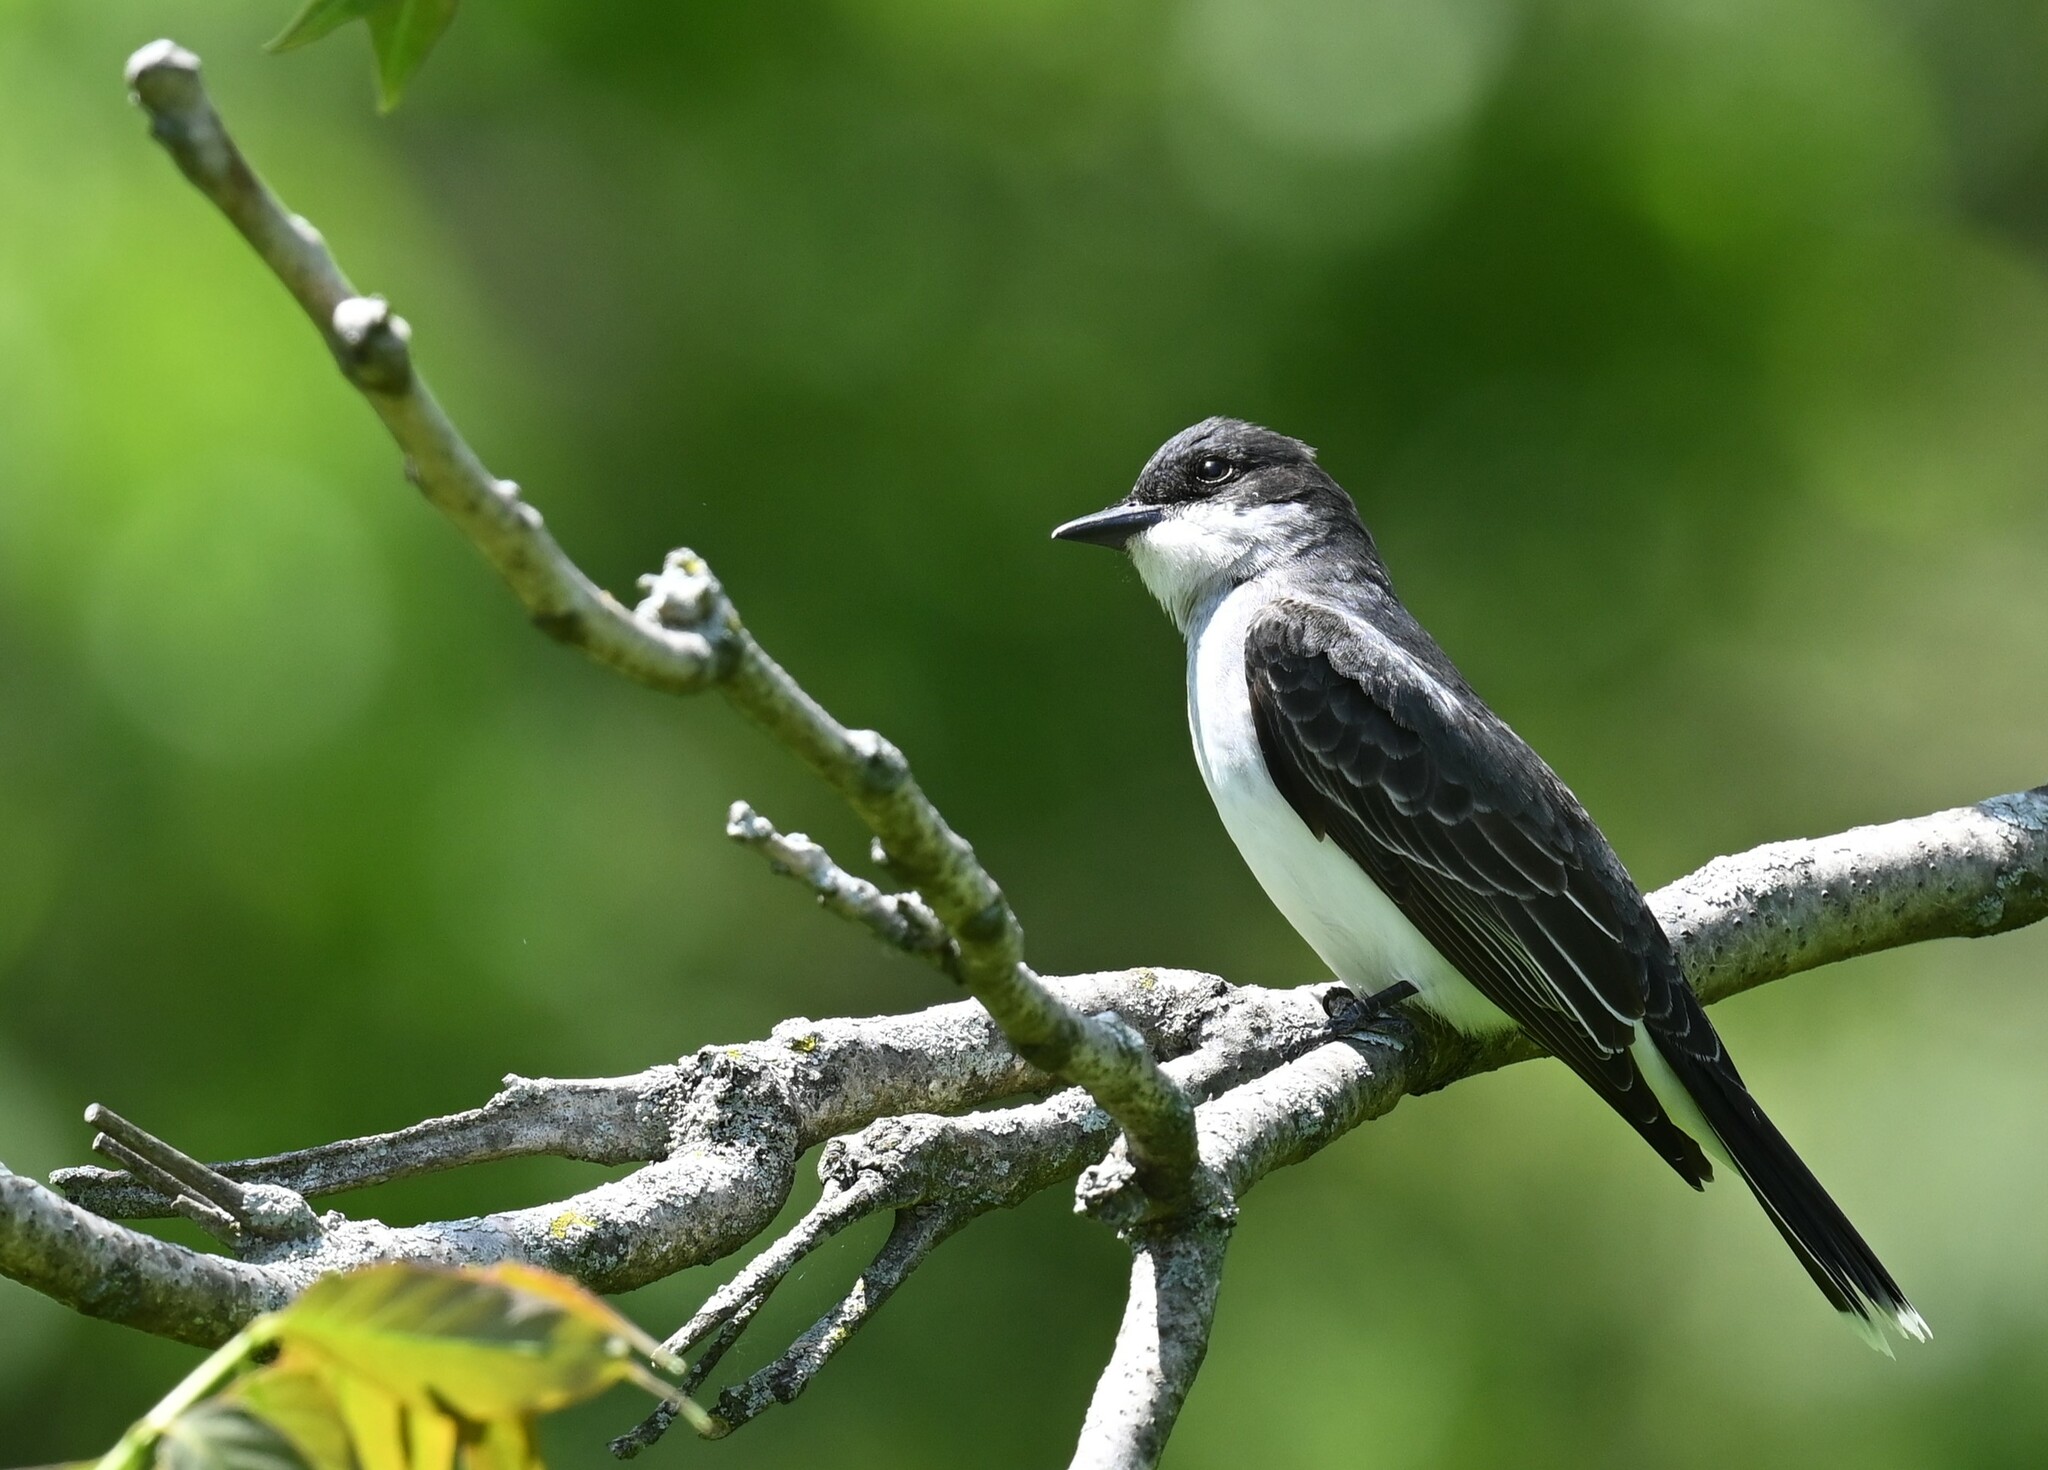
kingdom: Animalia
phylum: Chordata
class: Aves
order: Passeriformes
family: Tyrannidae
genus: Tyrannus
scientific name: Tyrannus tyrannus
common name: Eastern kingbird
